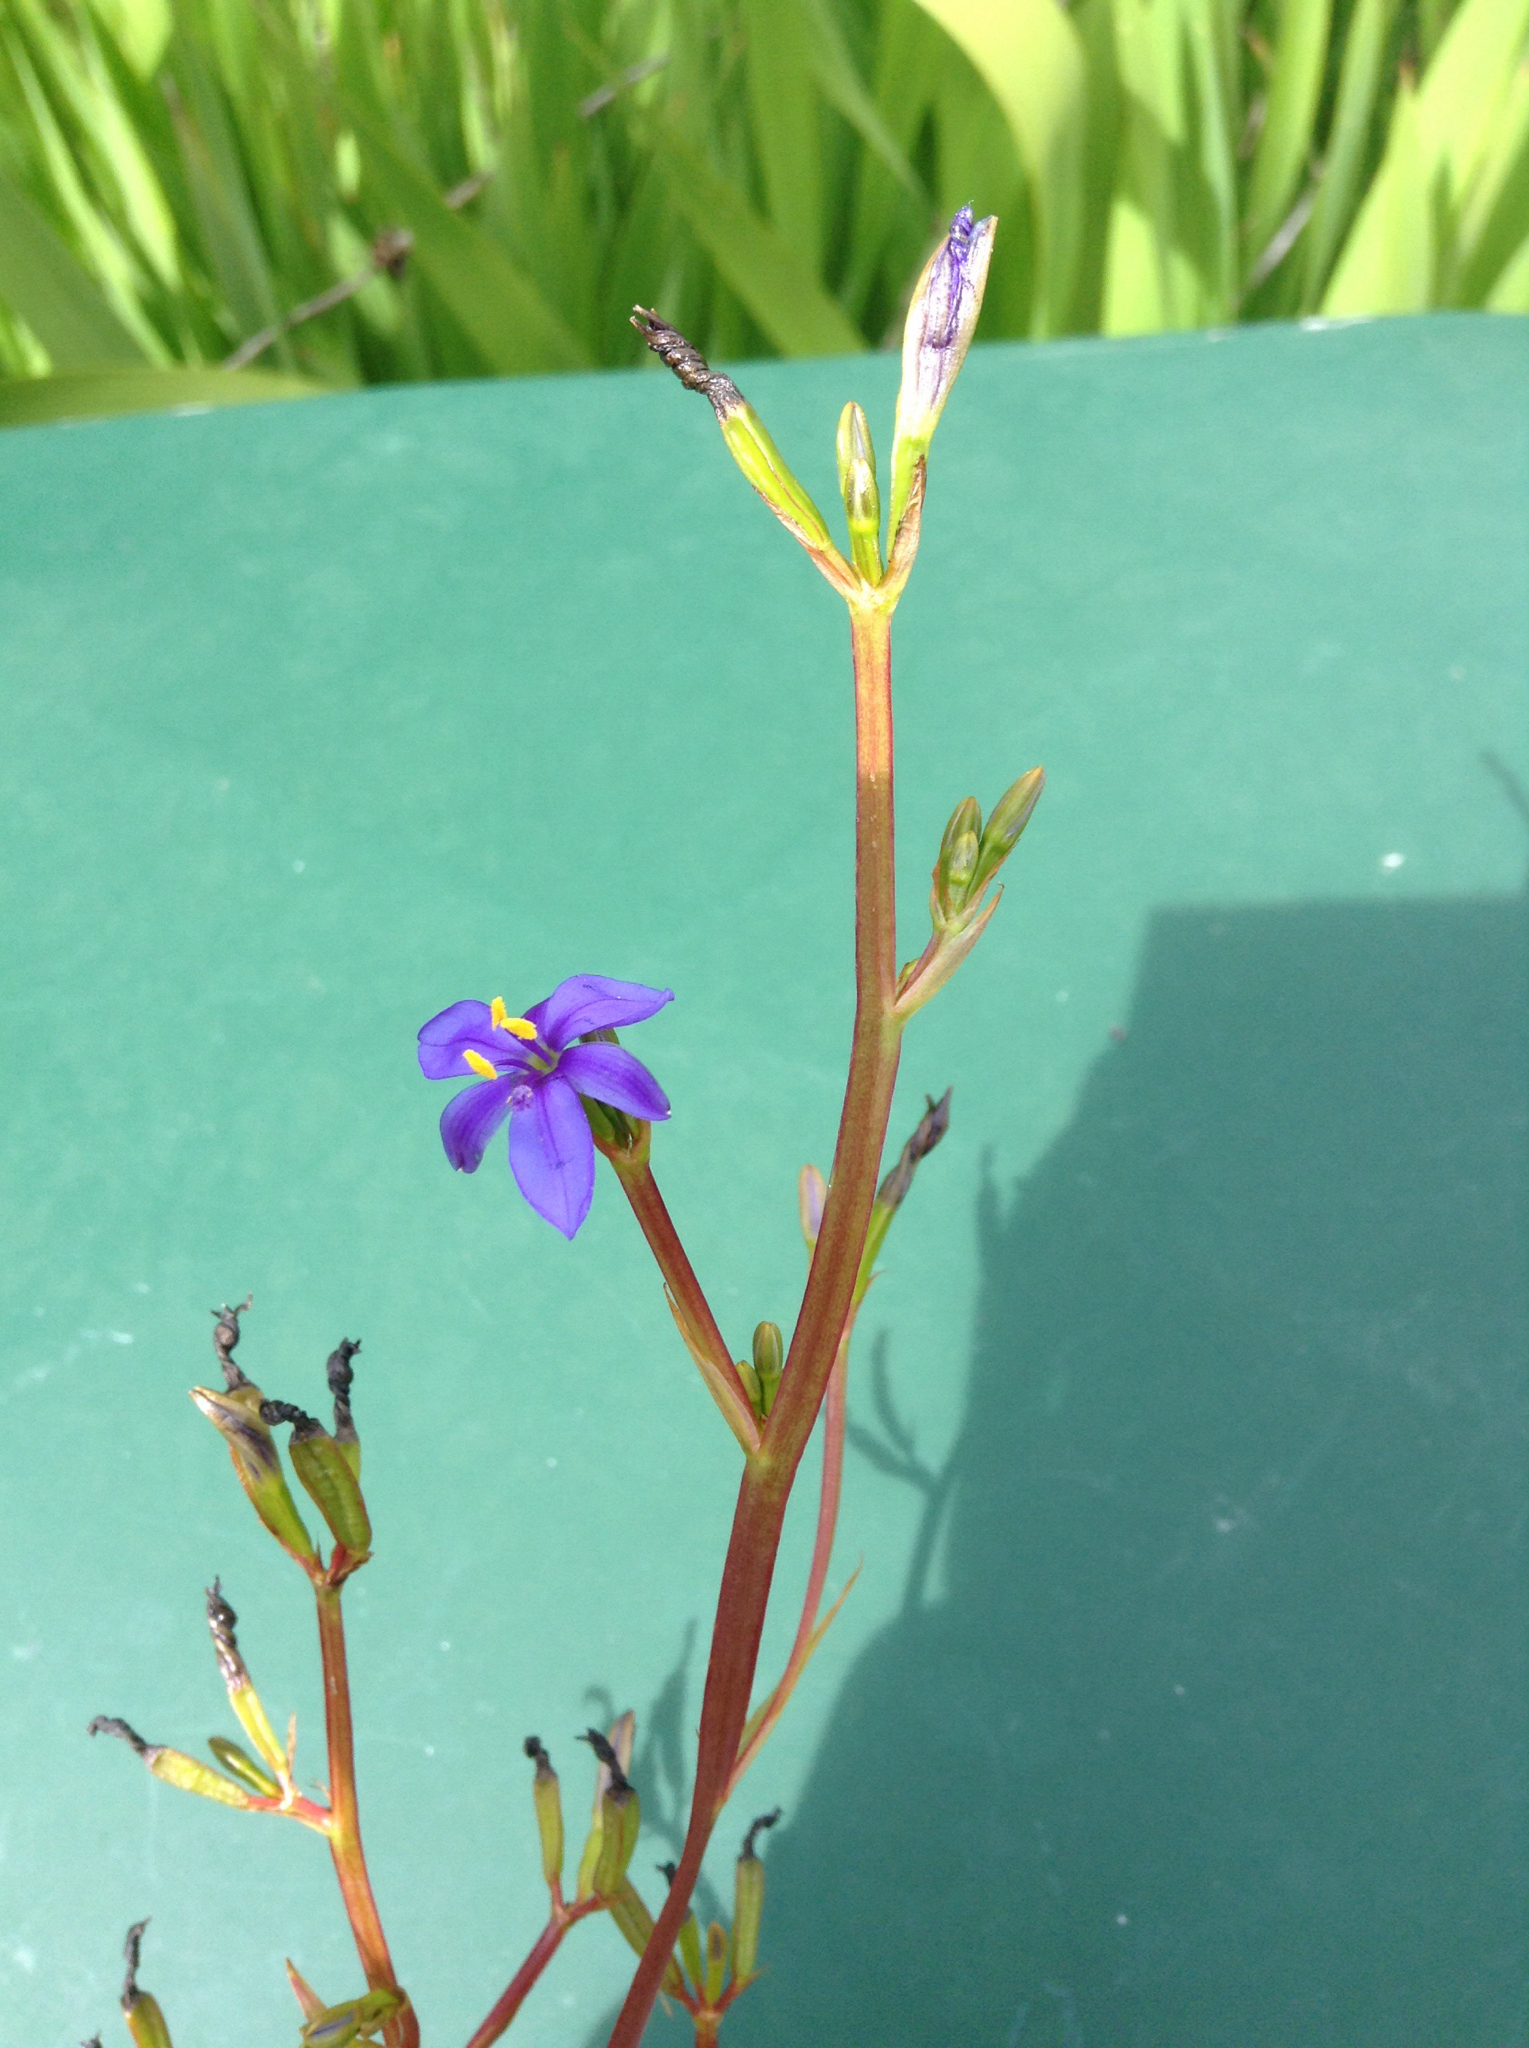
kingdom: Plantae
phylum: Tracheophyta
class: Liliopsida
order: Asparagales
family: Iridaceae
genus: Aristea
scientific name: Aristea ecklonii
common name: Blue corn-lily
